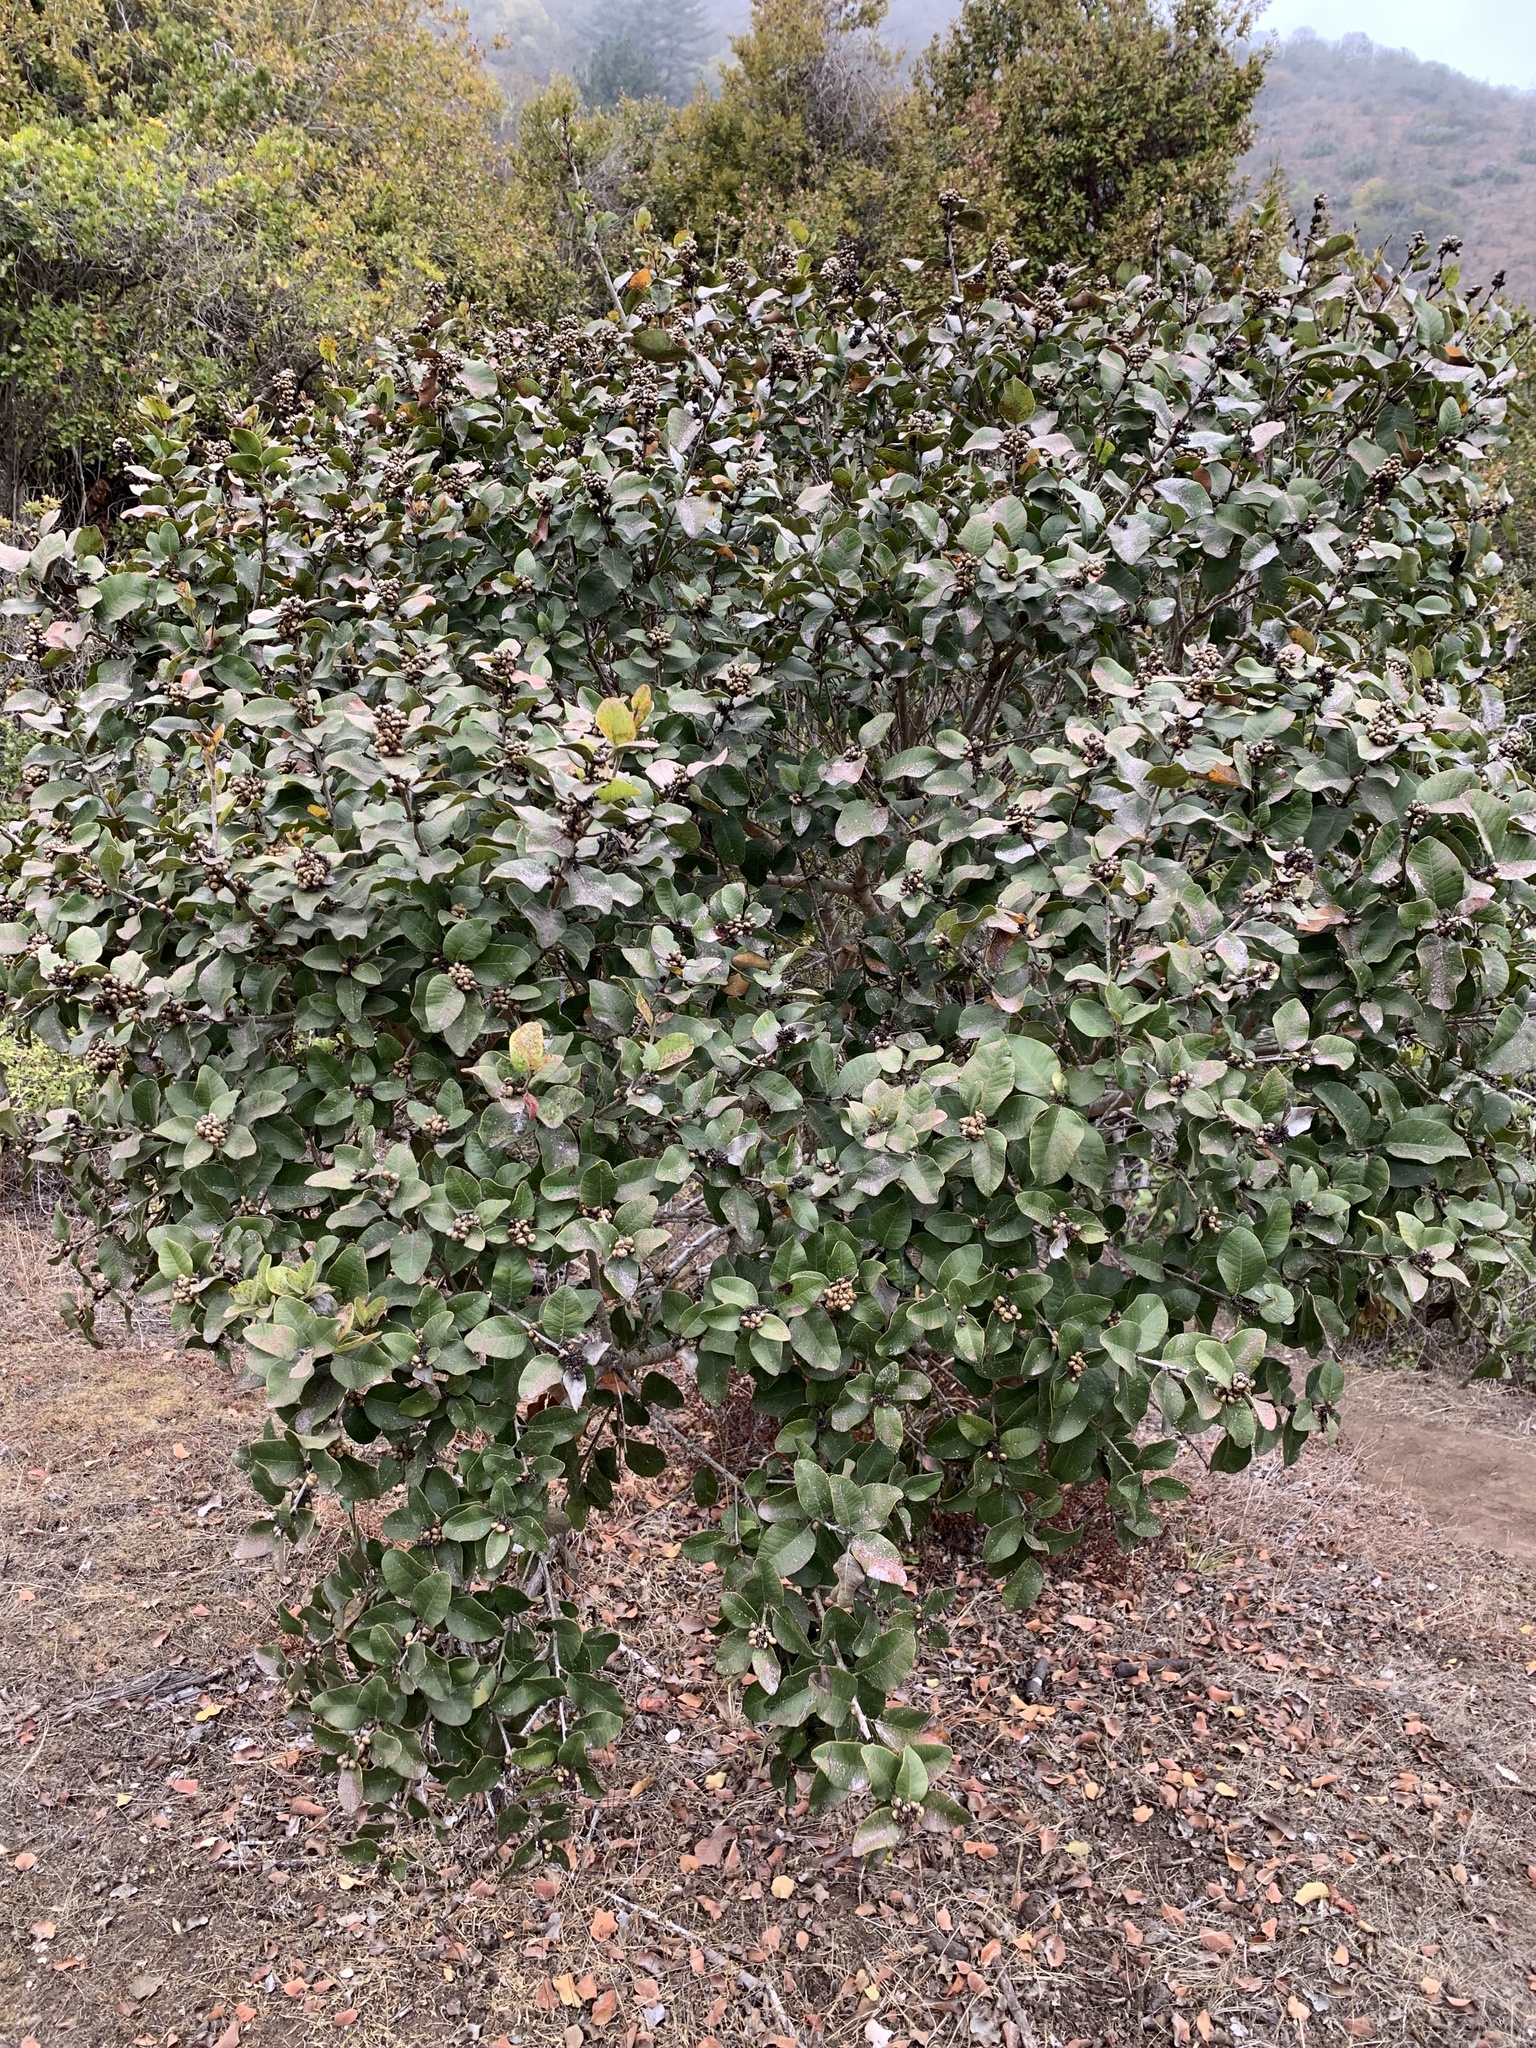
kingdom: Plantae
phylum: Tracheophyta
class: Magnoliopsida
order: Sapindales
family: Anacardiaceae
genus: Lithraea
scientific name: Lithraea caustica
